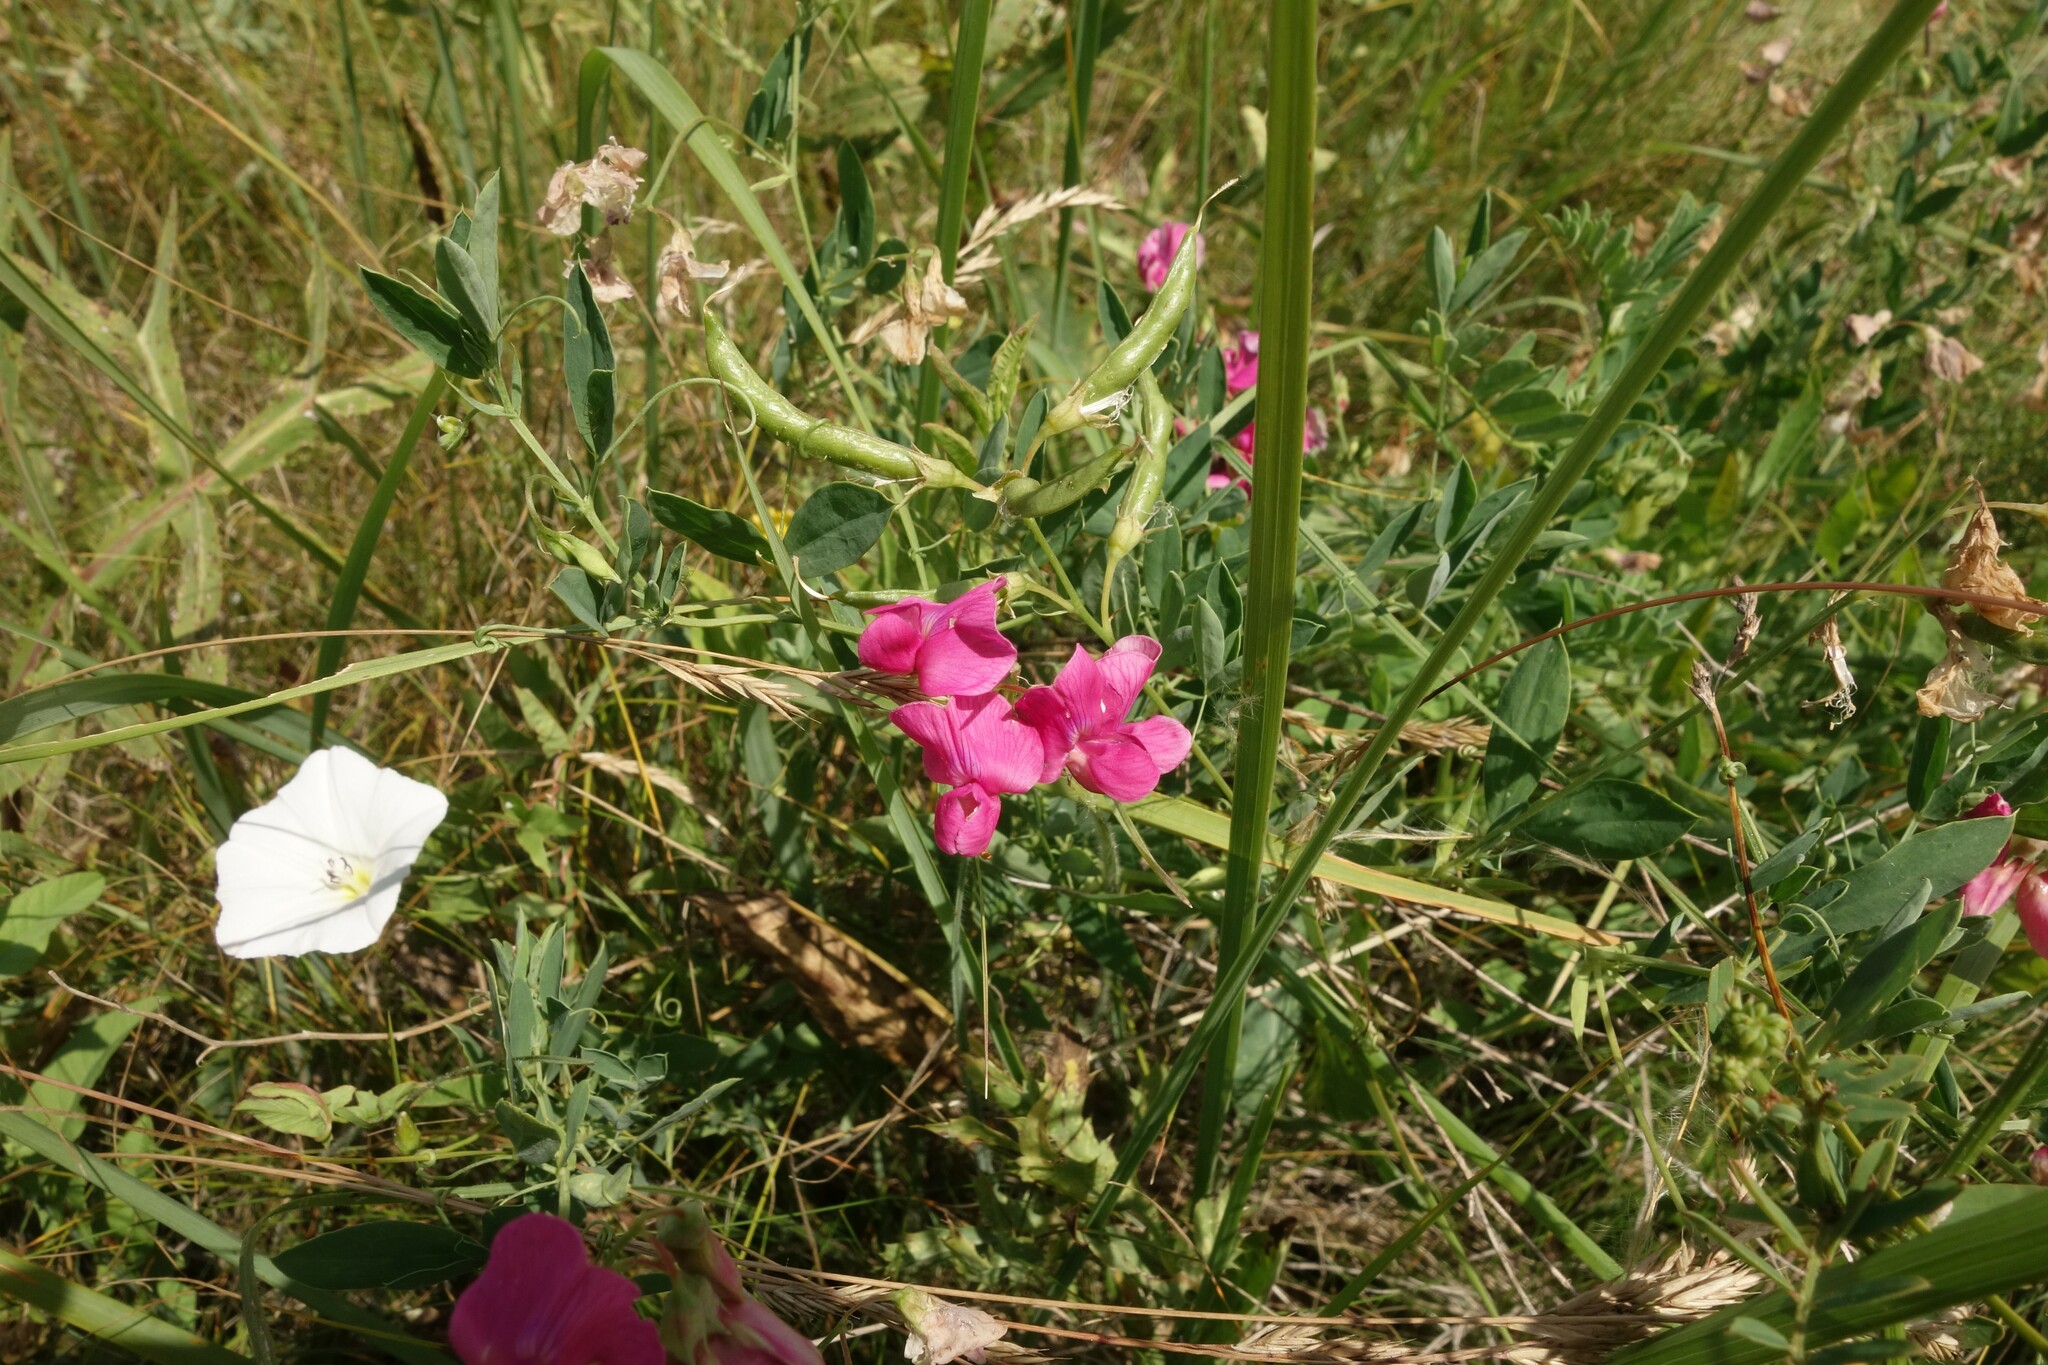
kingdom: Plantae
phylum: Tracheophyta
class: Magnoliopsida
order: Fabales
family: Fabaceae
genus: Lathyrus
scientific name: Lathyrus tuberosus
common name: Tuberous pea
